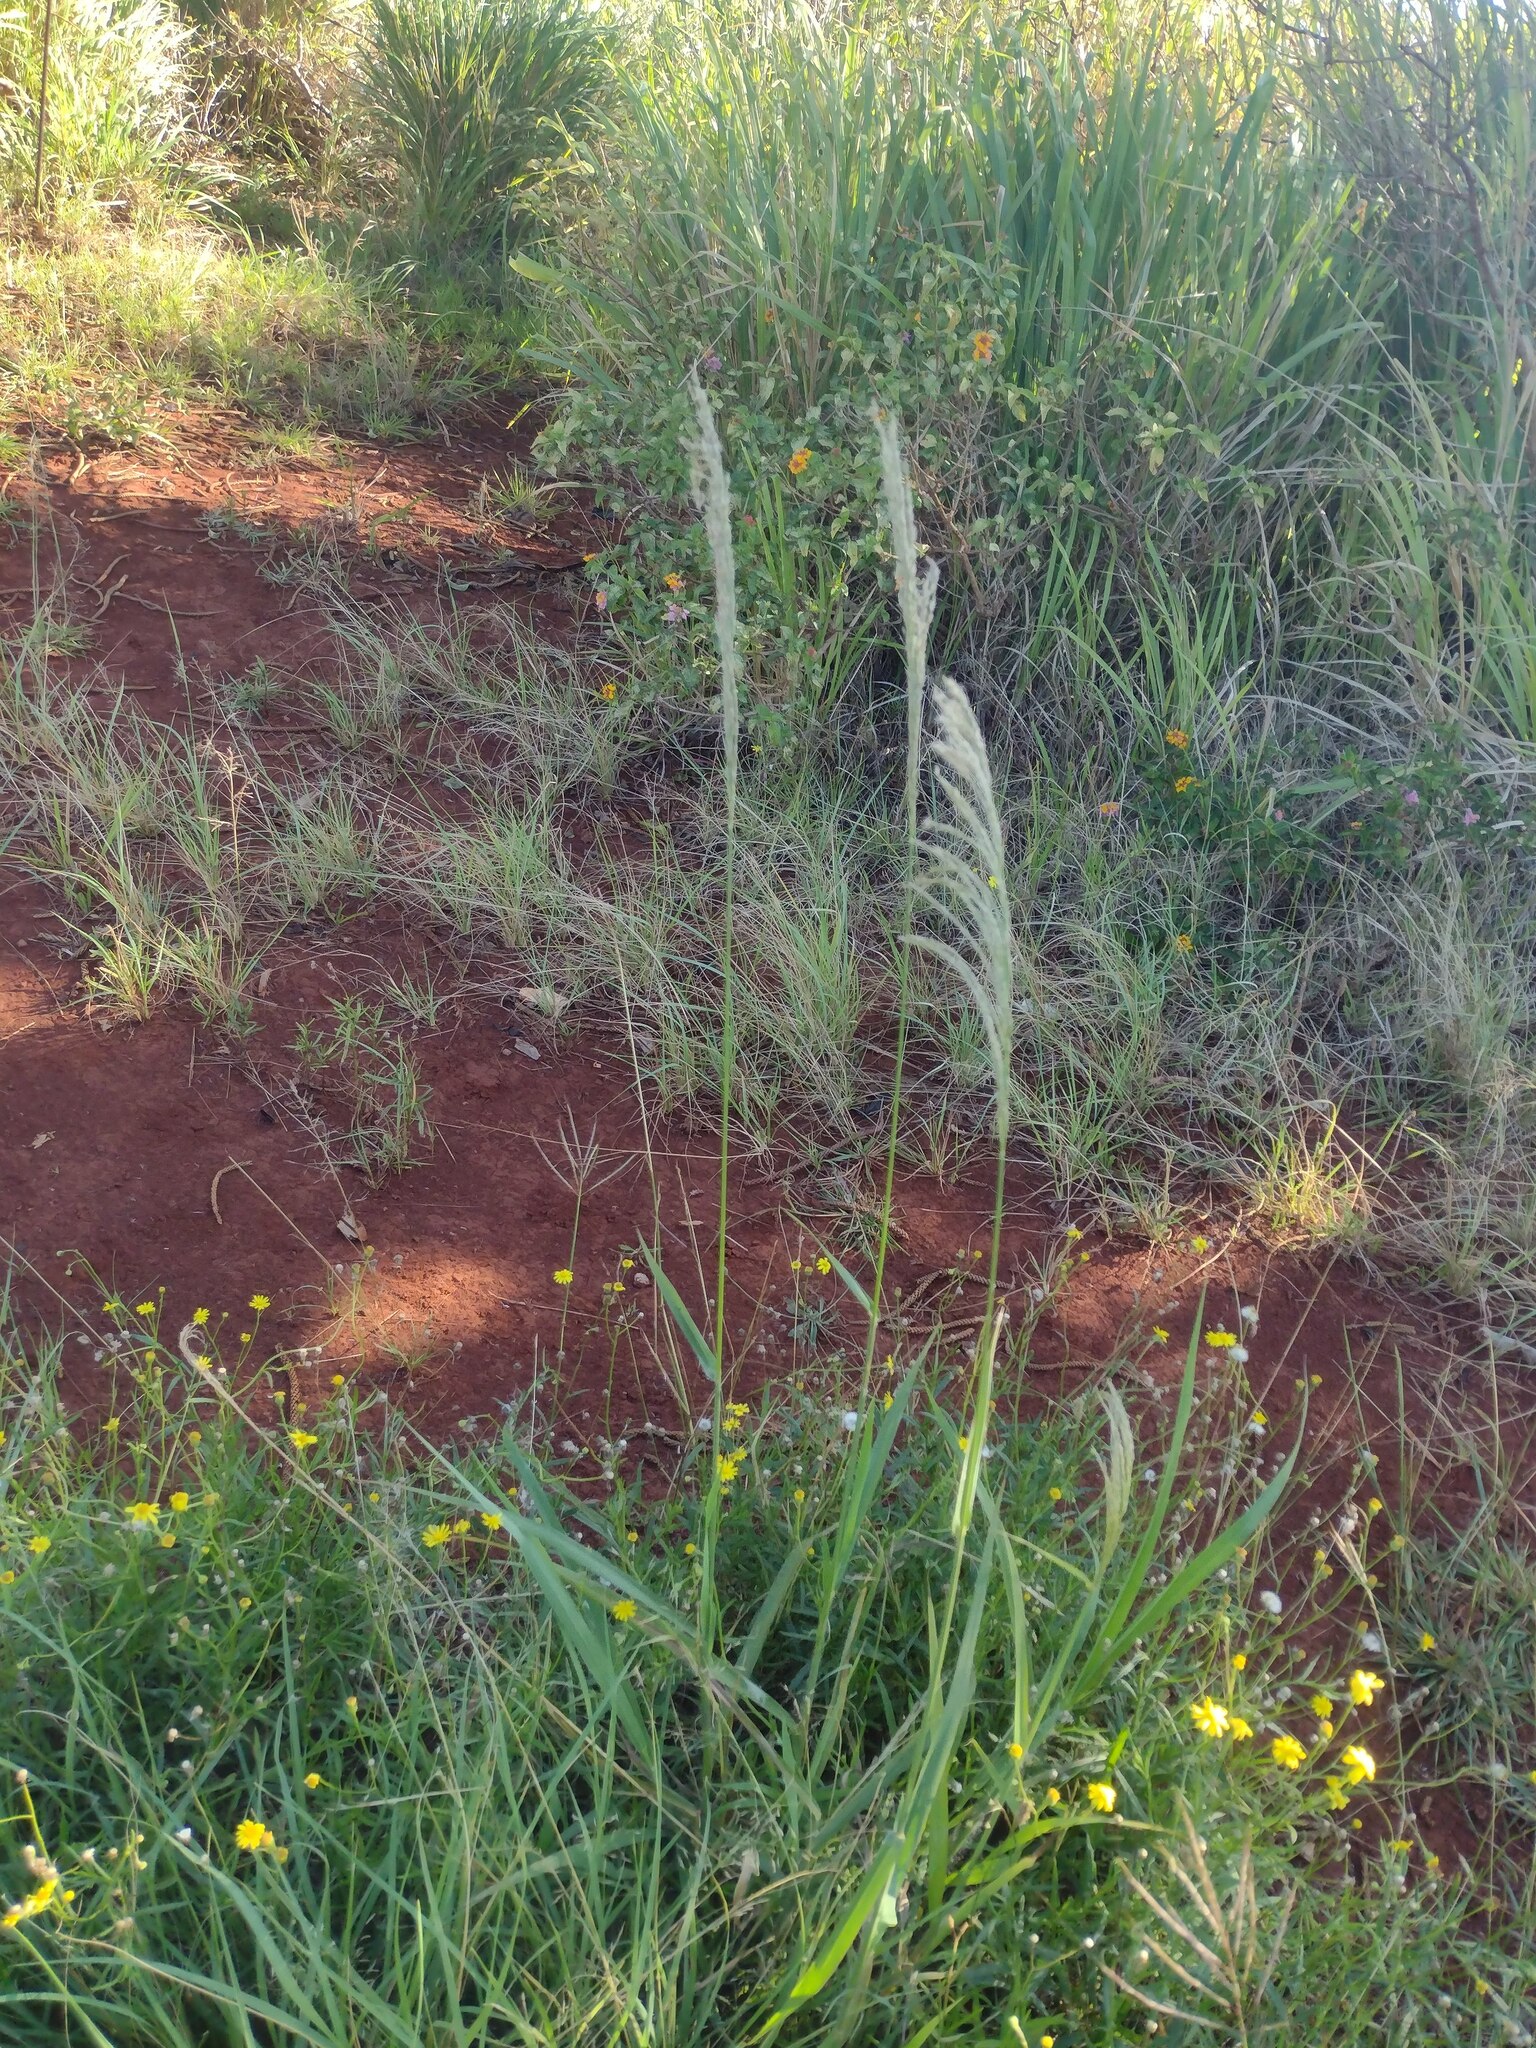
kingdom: Plantae
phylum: Tracheophyta
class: Liliopsida
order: Poales
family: Poaceae
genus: Digitaria
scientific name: Digitaria insularis
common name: Sourgrass
